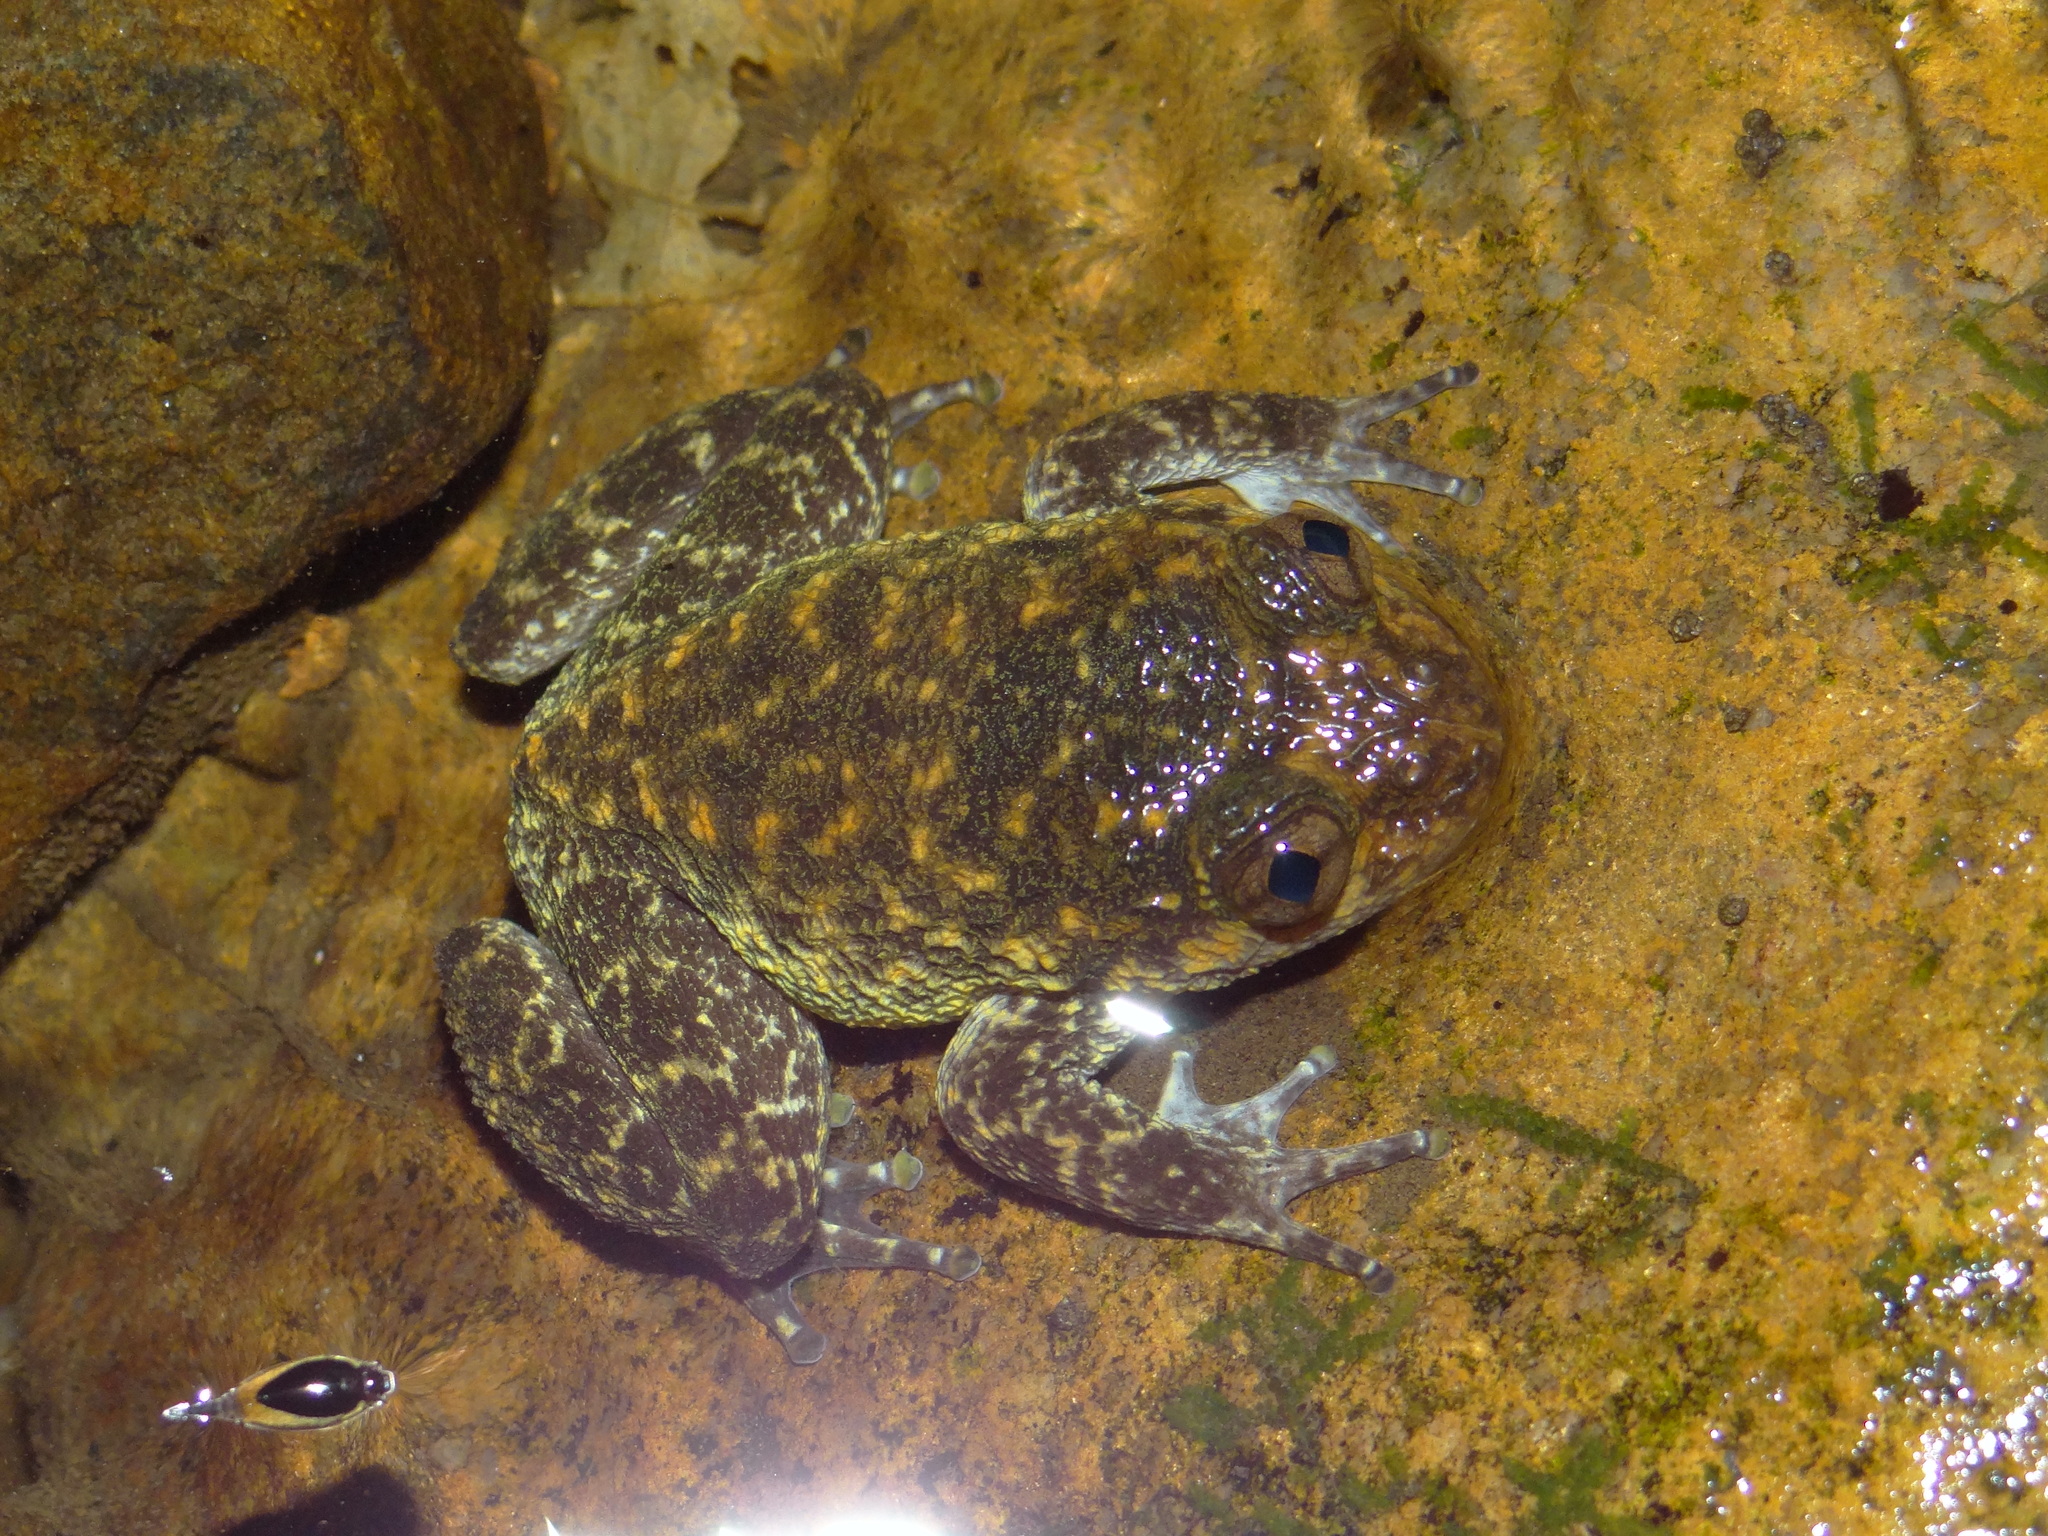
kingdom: Animalia
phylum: Chordata
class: Amphibia
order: Anura
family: Nyctibatrachidae
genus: Nyctibatrachus
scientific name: Nyctibatrachus grandis
